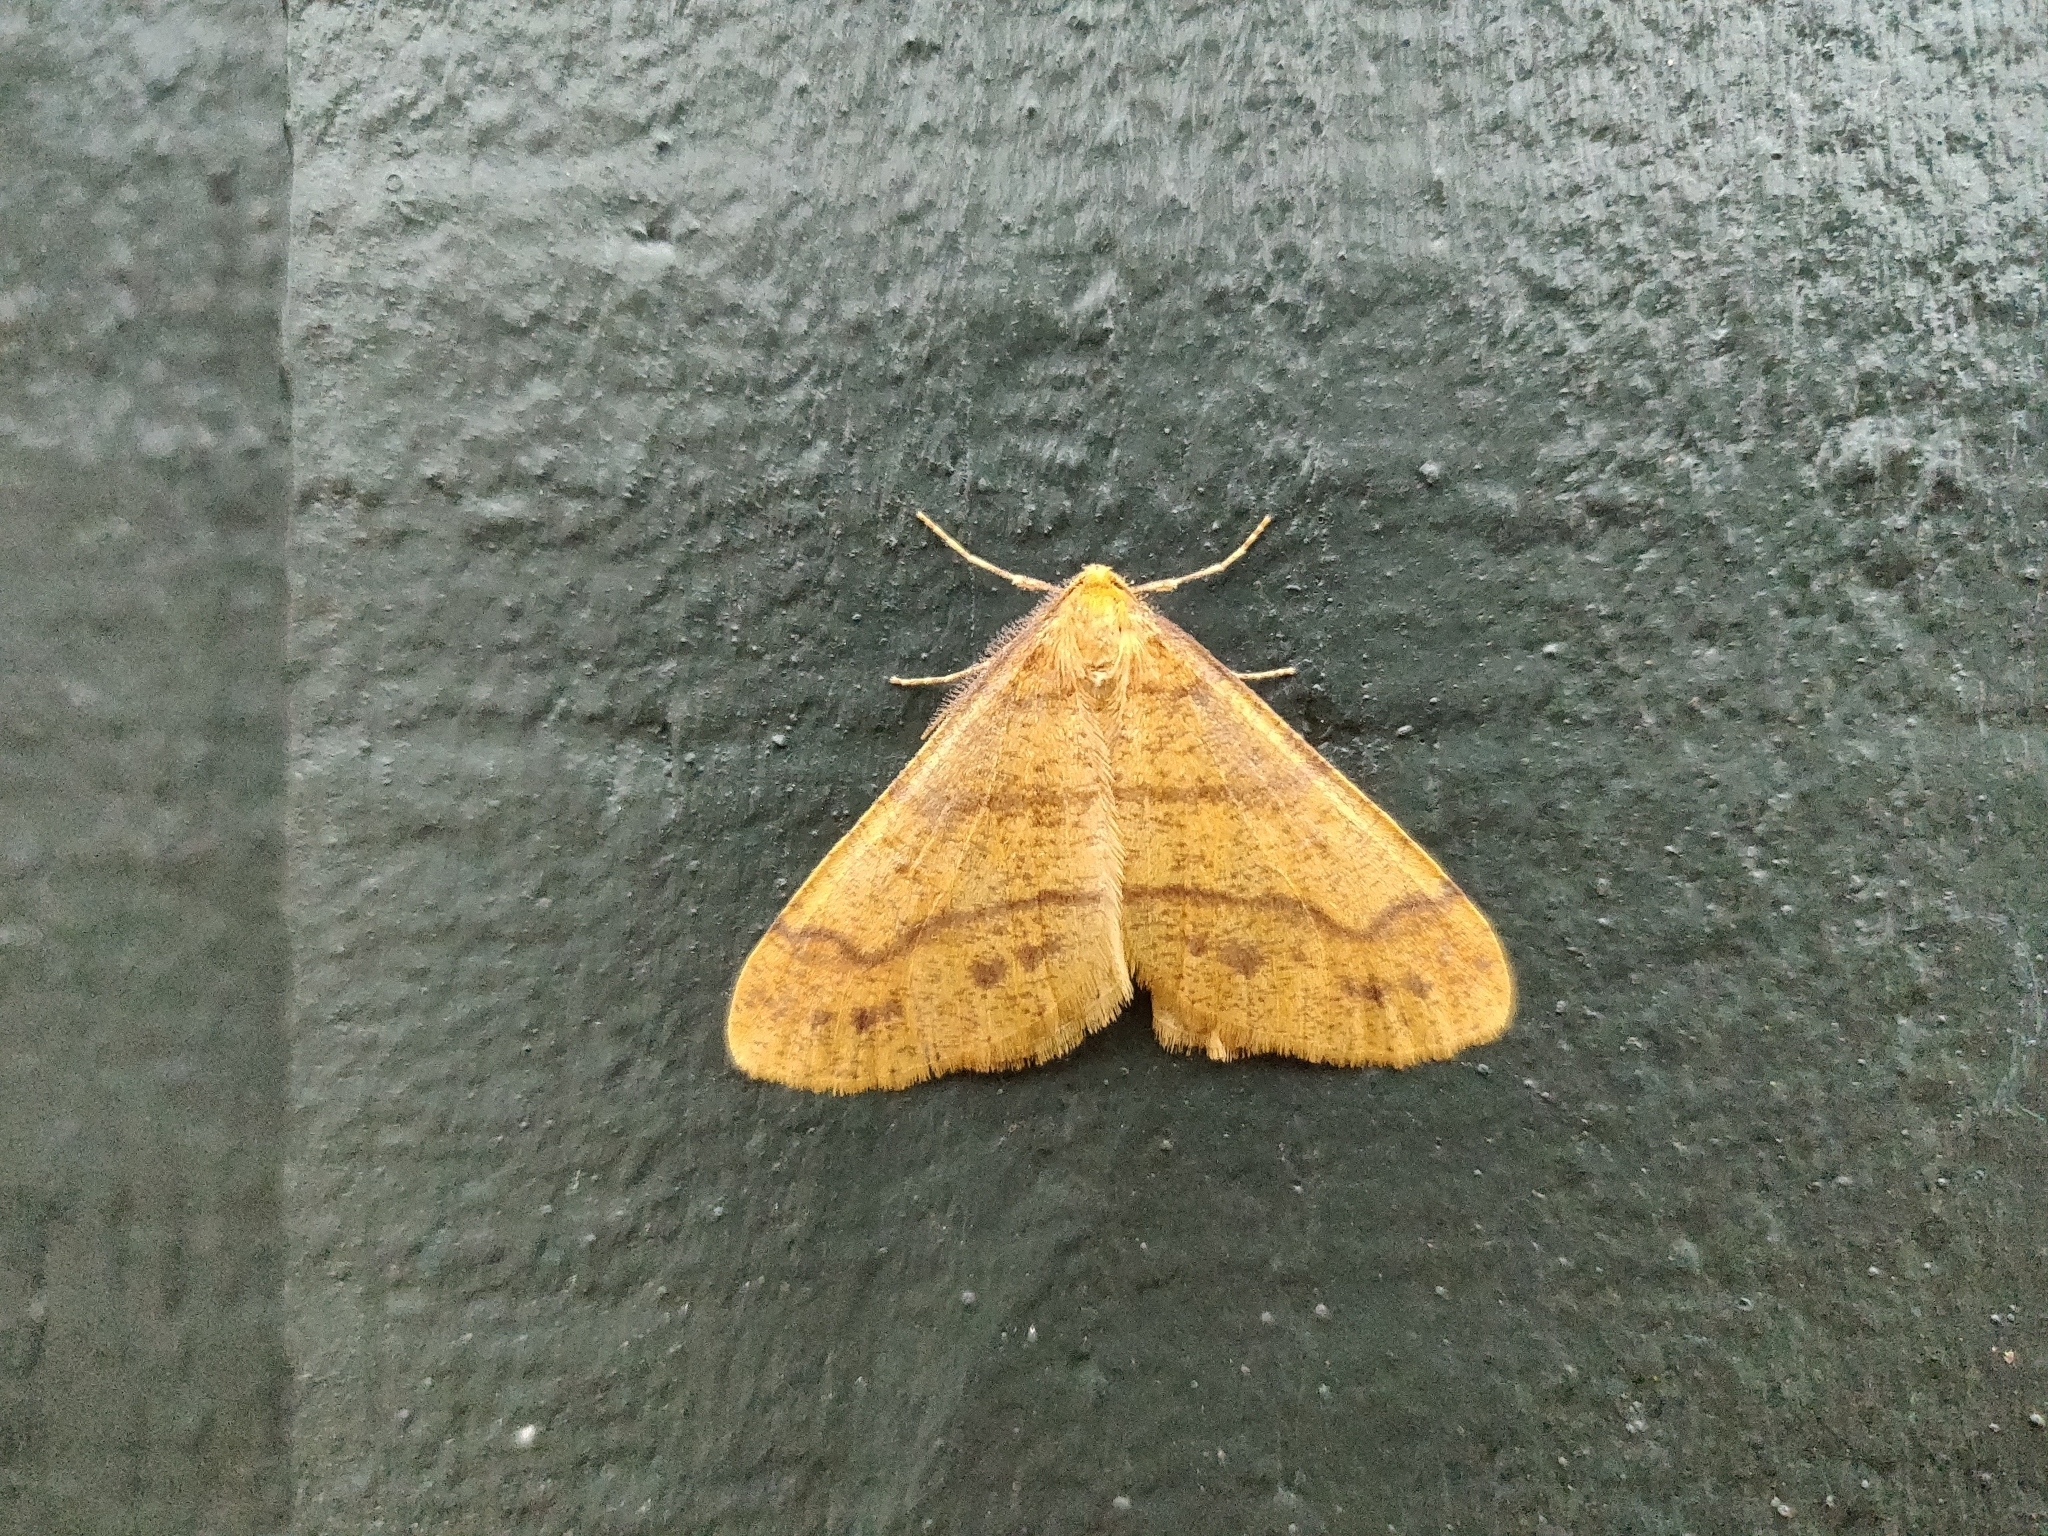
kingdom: Animalia
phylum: Arthropoda
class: Insecta
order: Lepidoptera
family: Geometridae
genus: Agriopis
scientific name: Agriopis aurantiaria
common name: Scarce umber
